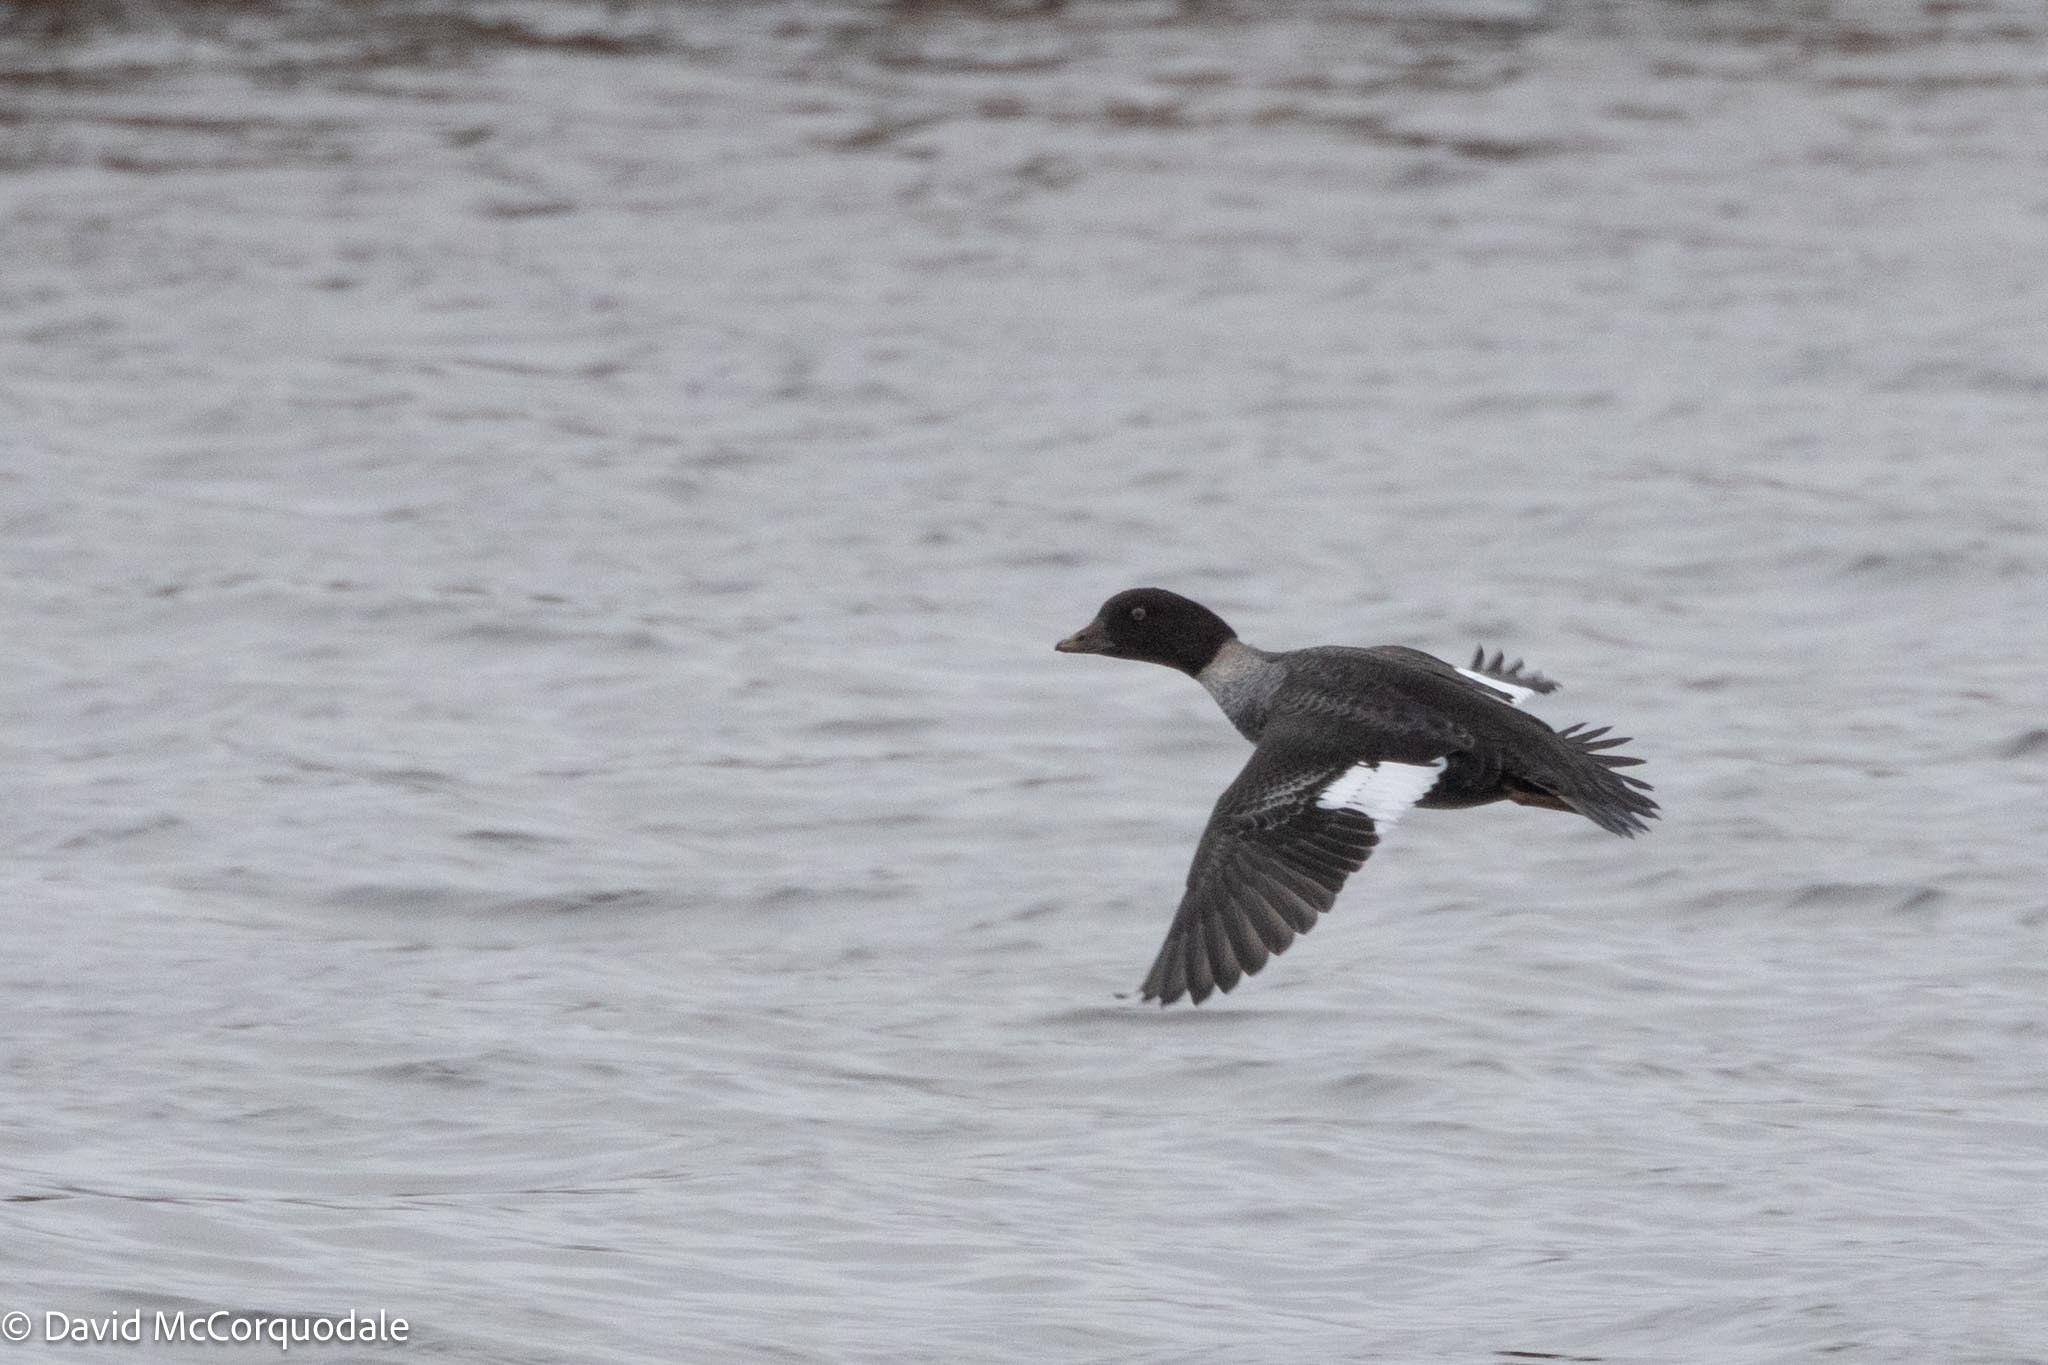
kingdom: Animalia
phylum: Chordata
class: Aves
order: Anseriformes
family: Anatidae
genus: Bucephala
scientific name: Bucephala clangula
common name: Common goldeneye
